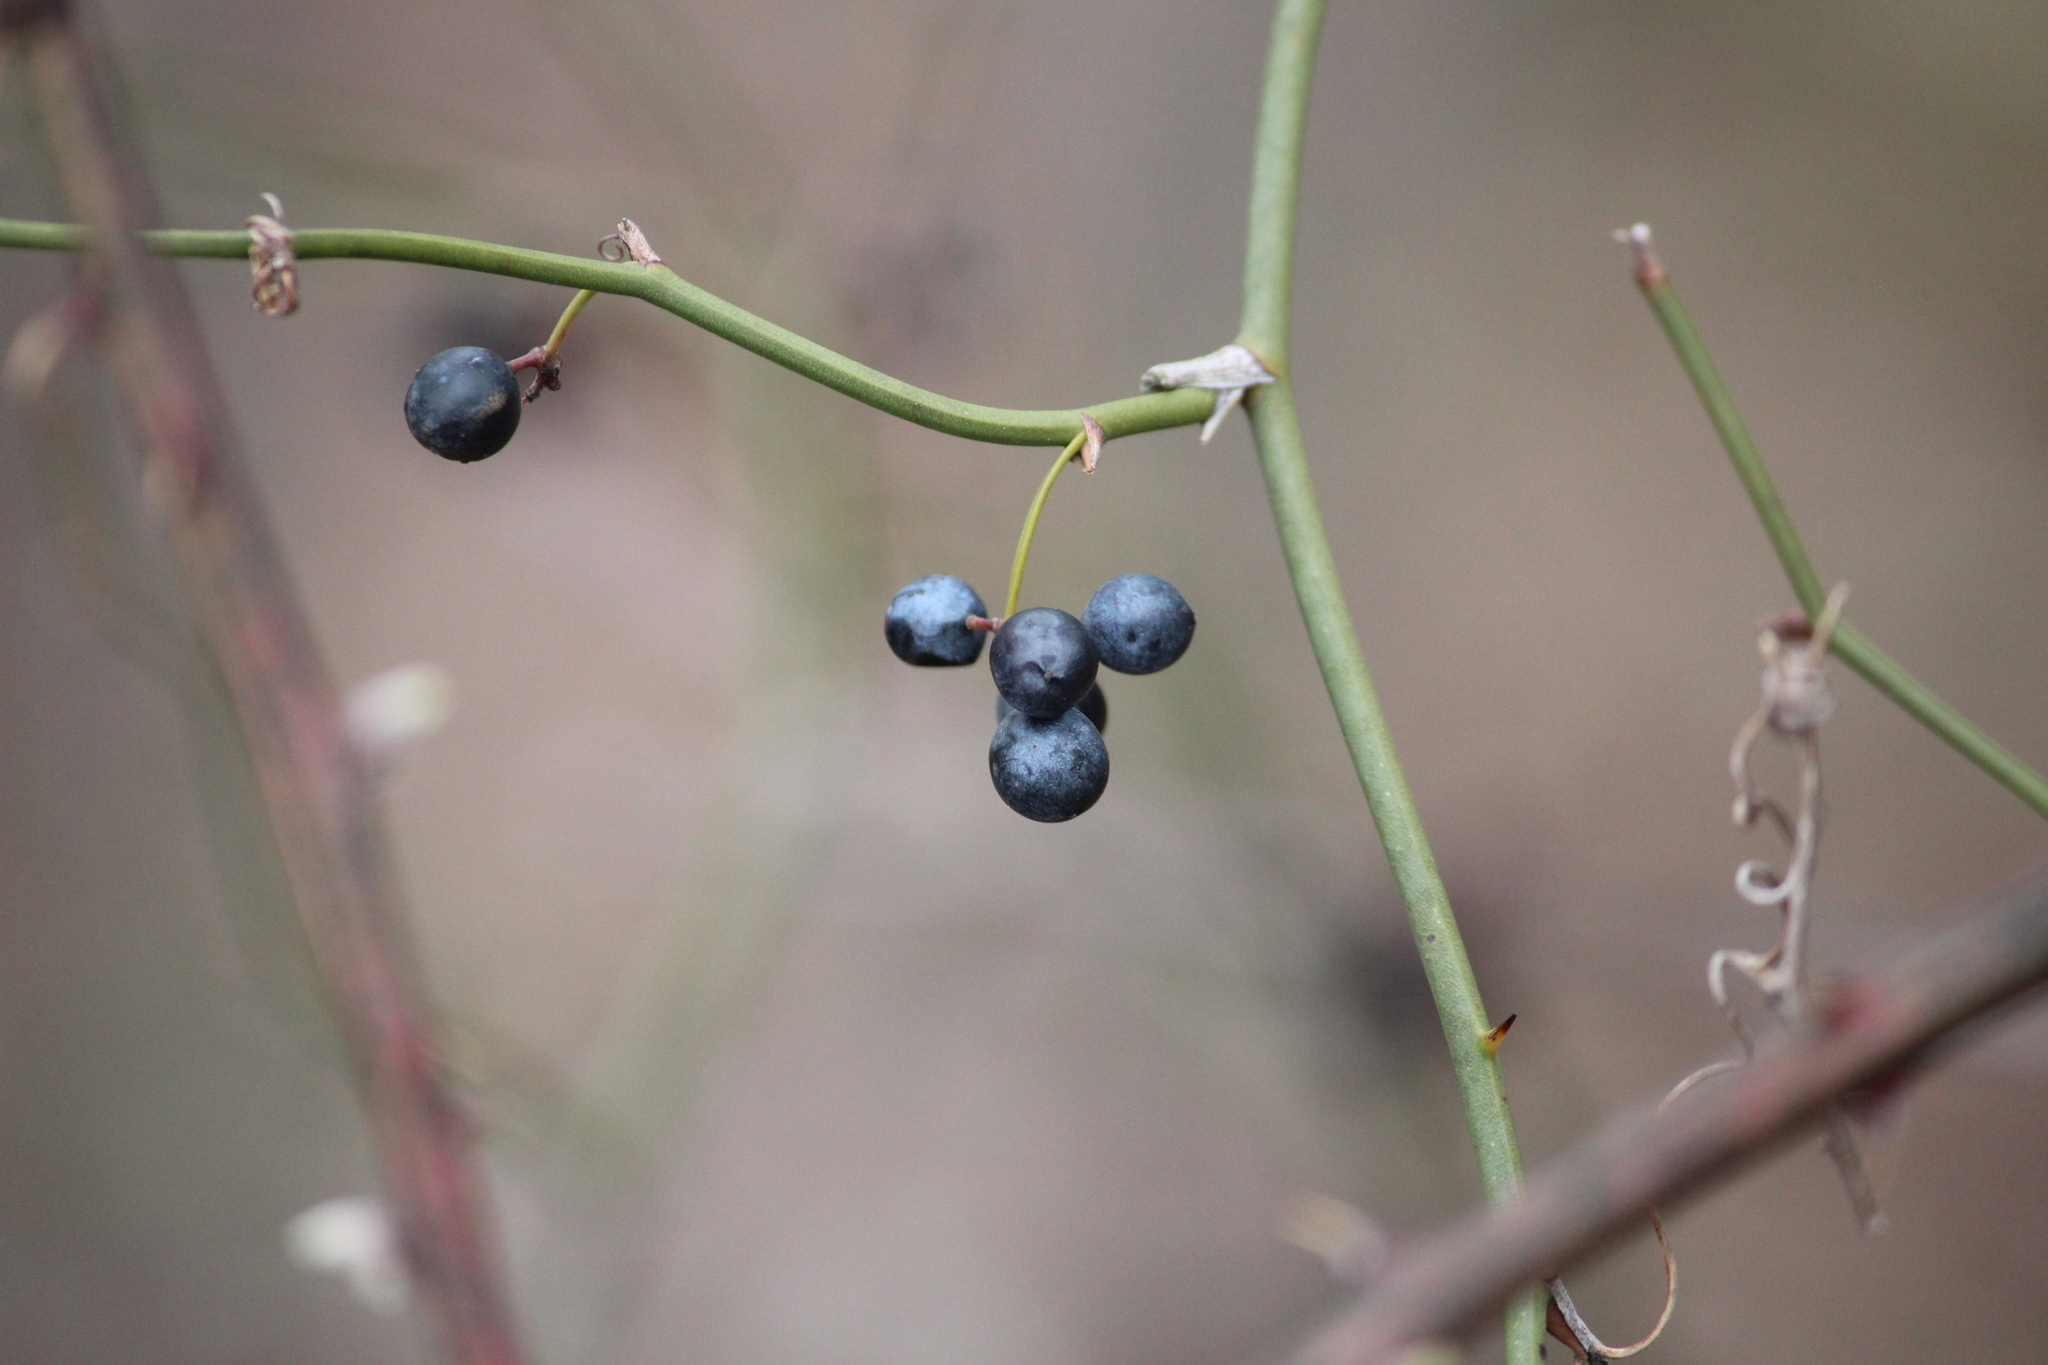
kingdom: Plantae
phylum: Tracheophyta
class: Liliopsida
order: Liliales
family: Smilacaceae
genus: Smilax
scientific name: Smilax rotundifolia
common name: Bullbriar
